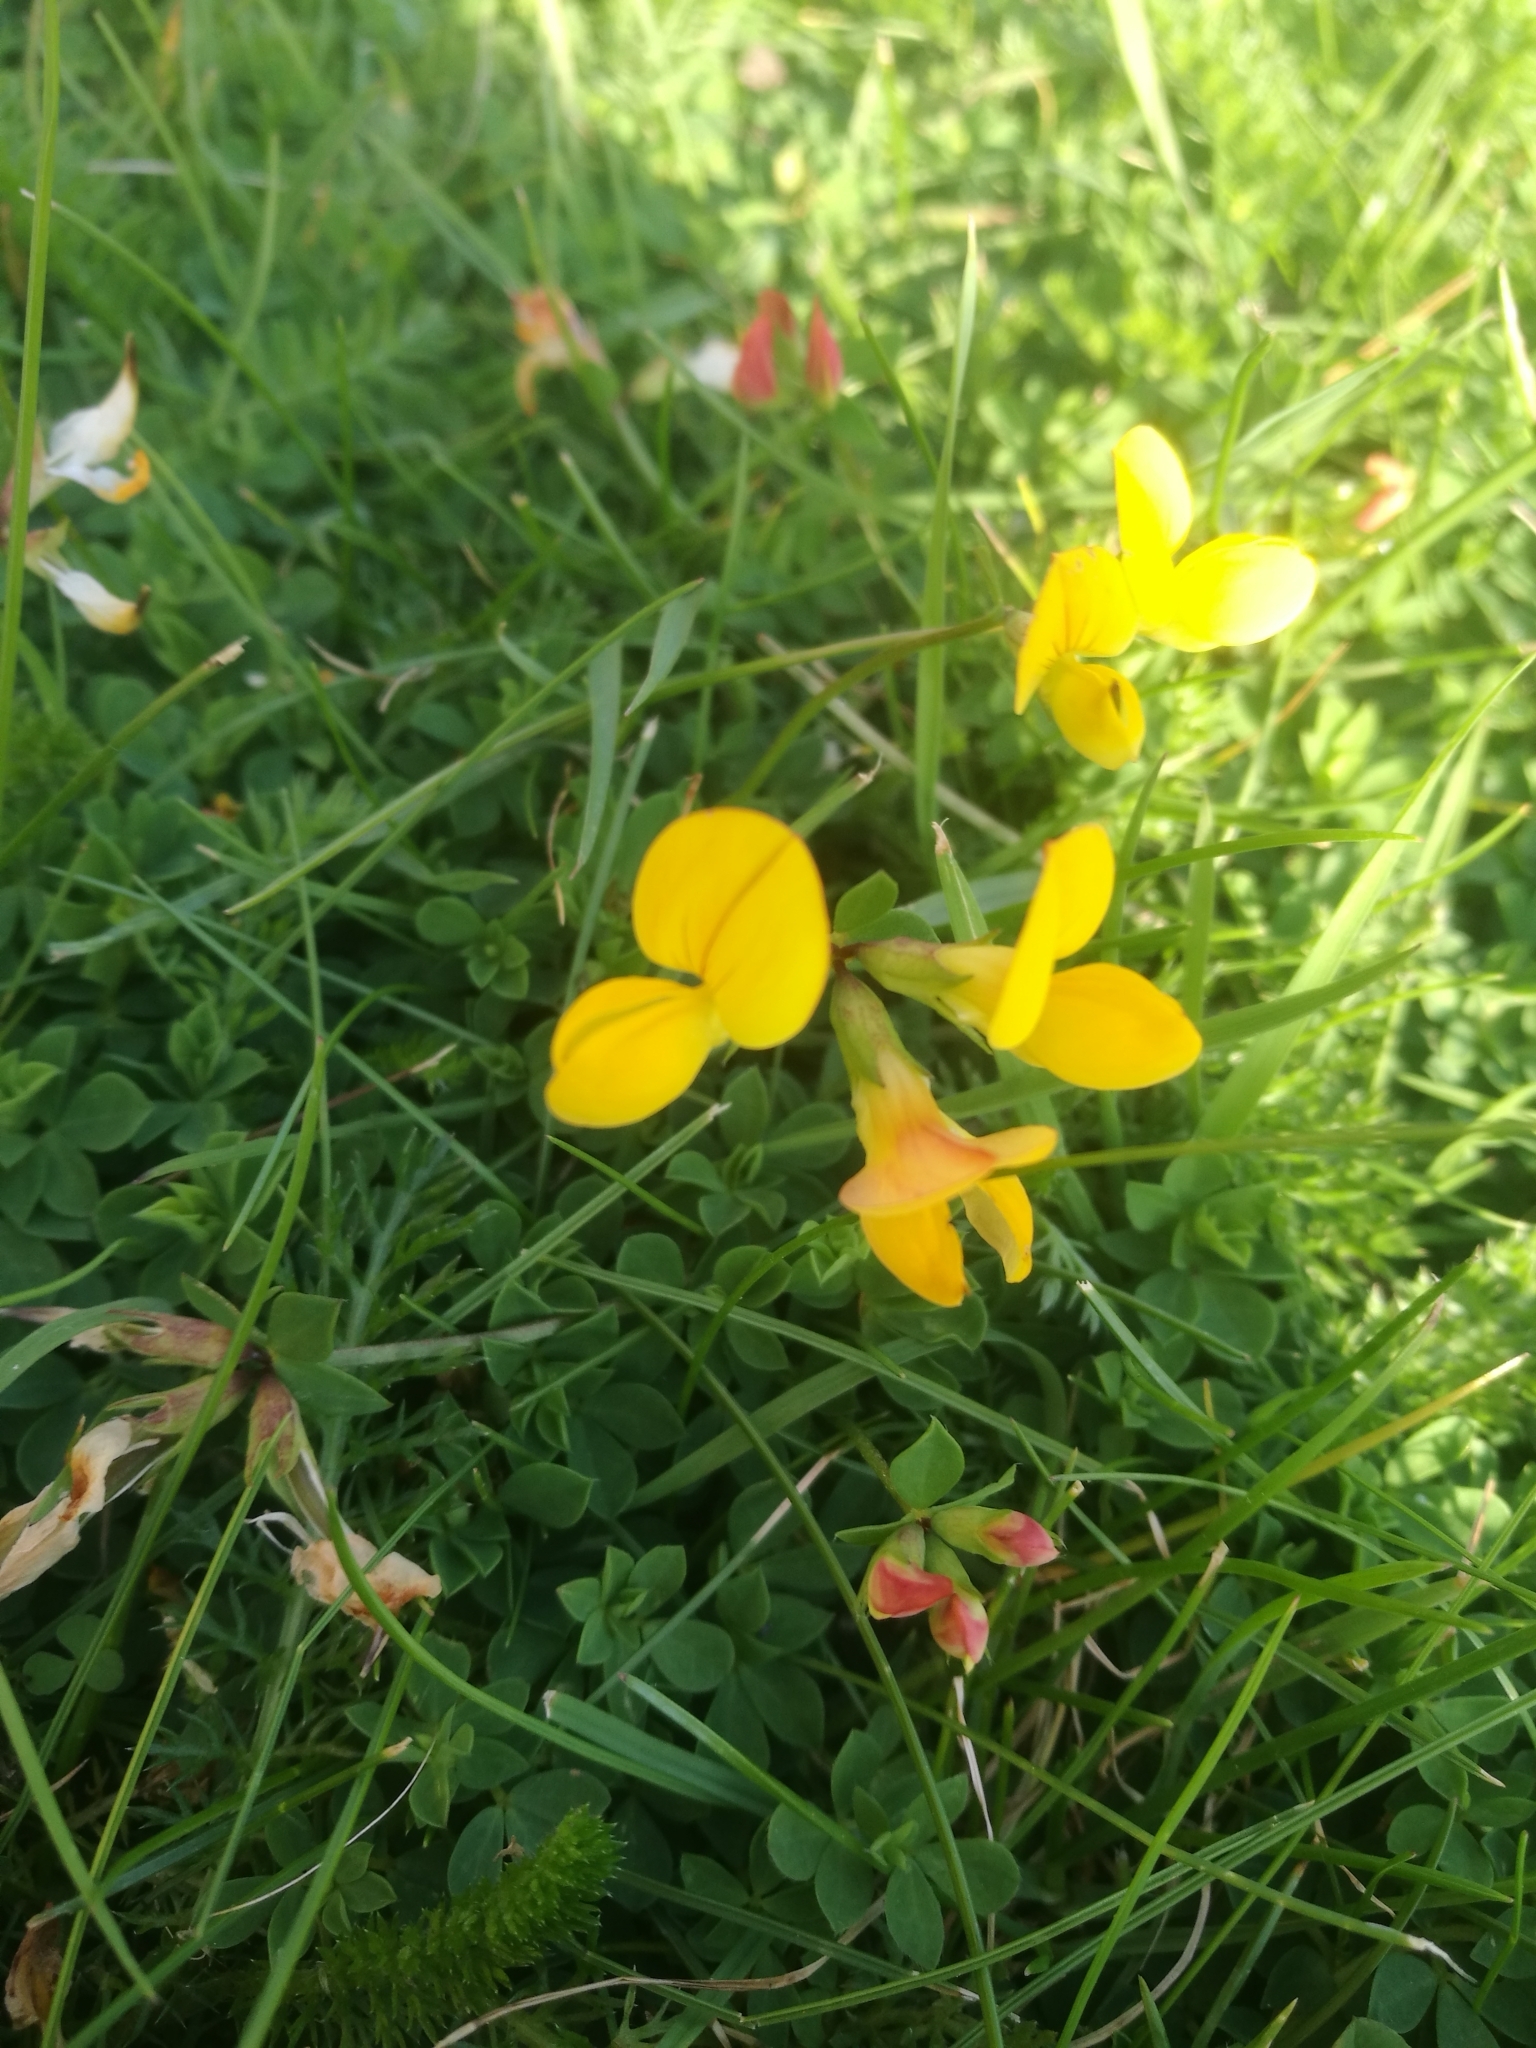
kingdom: Plantae
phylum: Tracheophyta
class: Magnoliopsida
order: Fabales
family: Fabaceae
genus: Lotus
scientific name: Lotus corniculatus
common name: Common bird's-foot-trefoil
